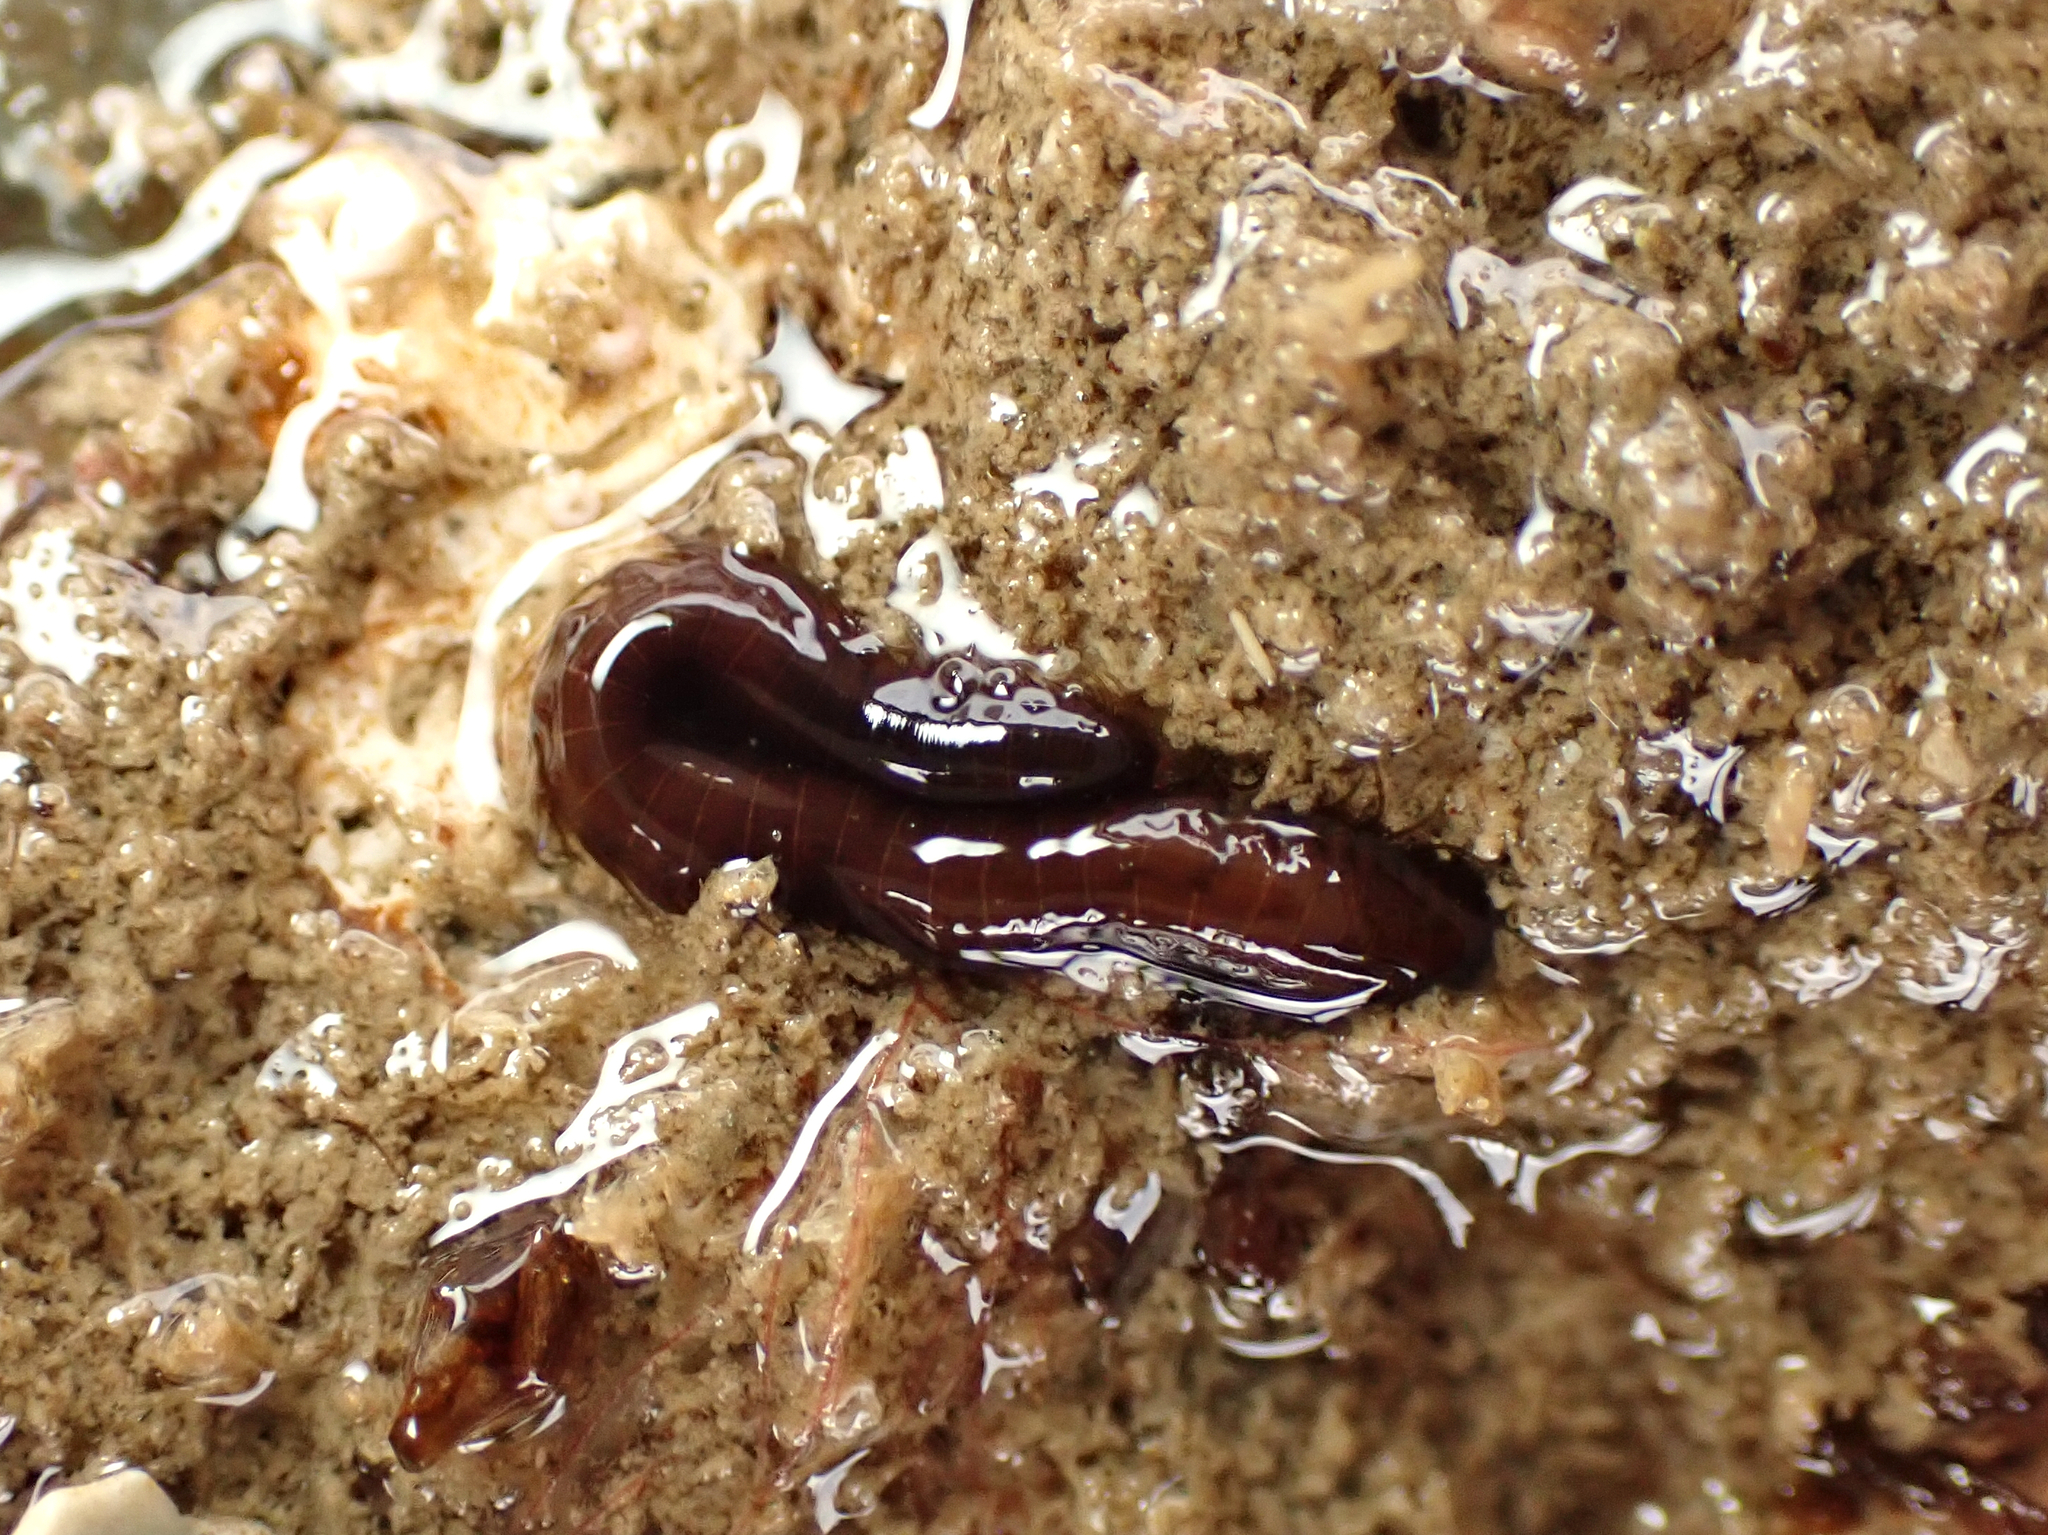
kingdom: Animalia
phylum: Annelida
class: Polychaeta
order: Phyllodocida
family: Hesionidae
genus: Oxydromus
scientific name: Oxydromus angustifrons
